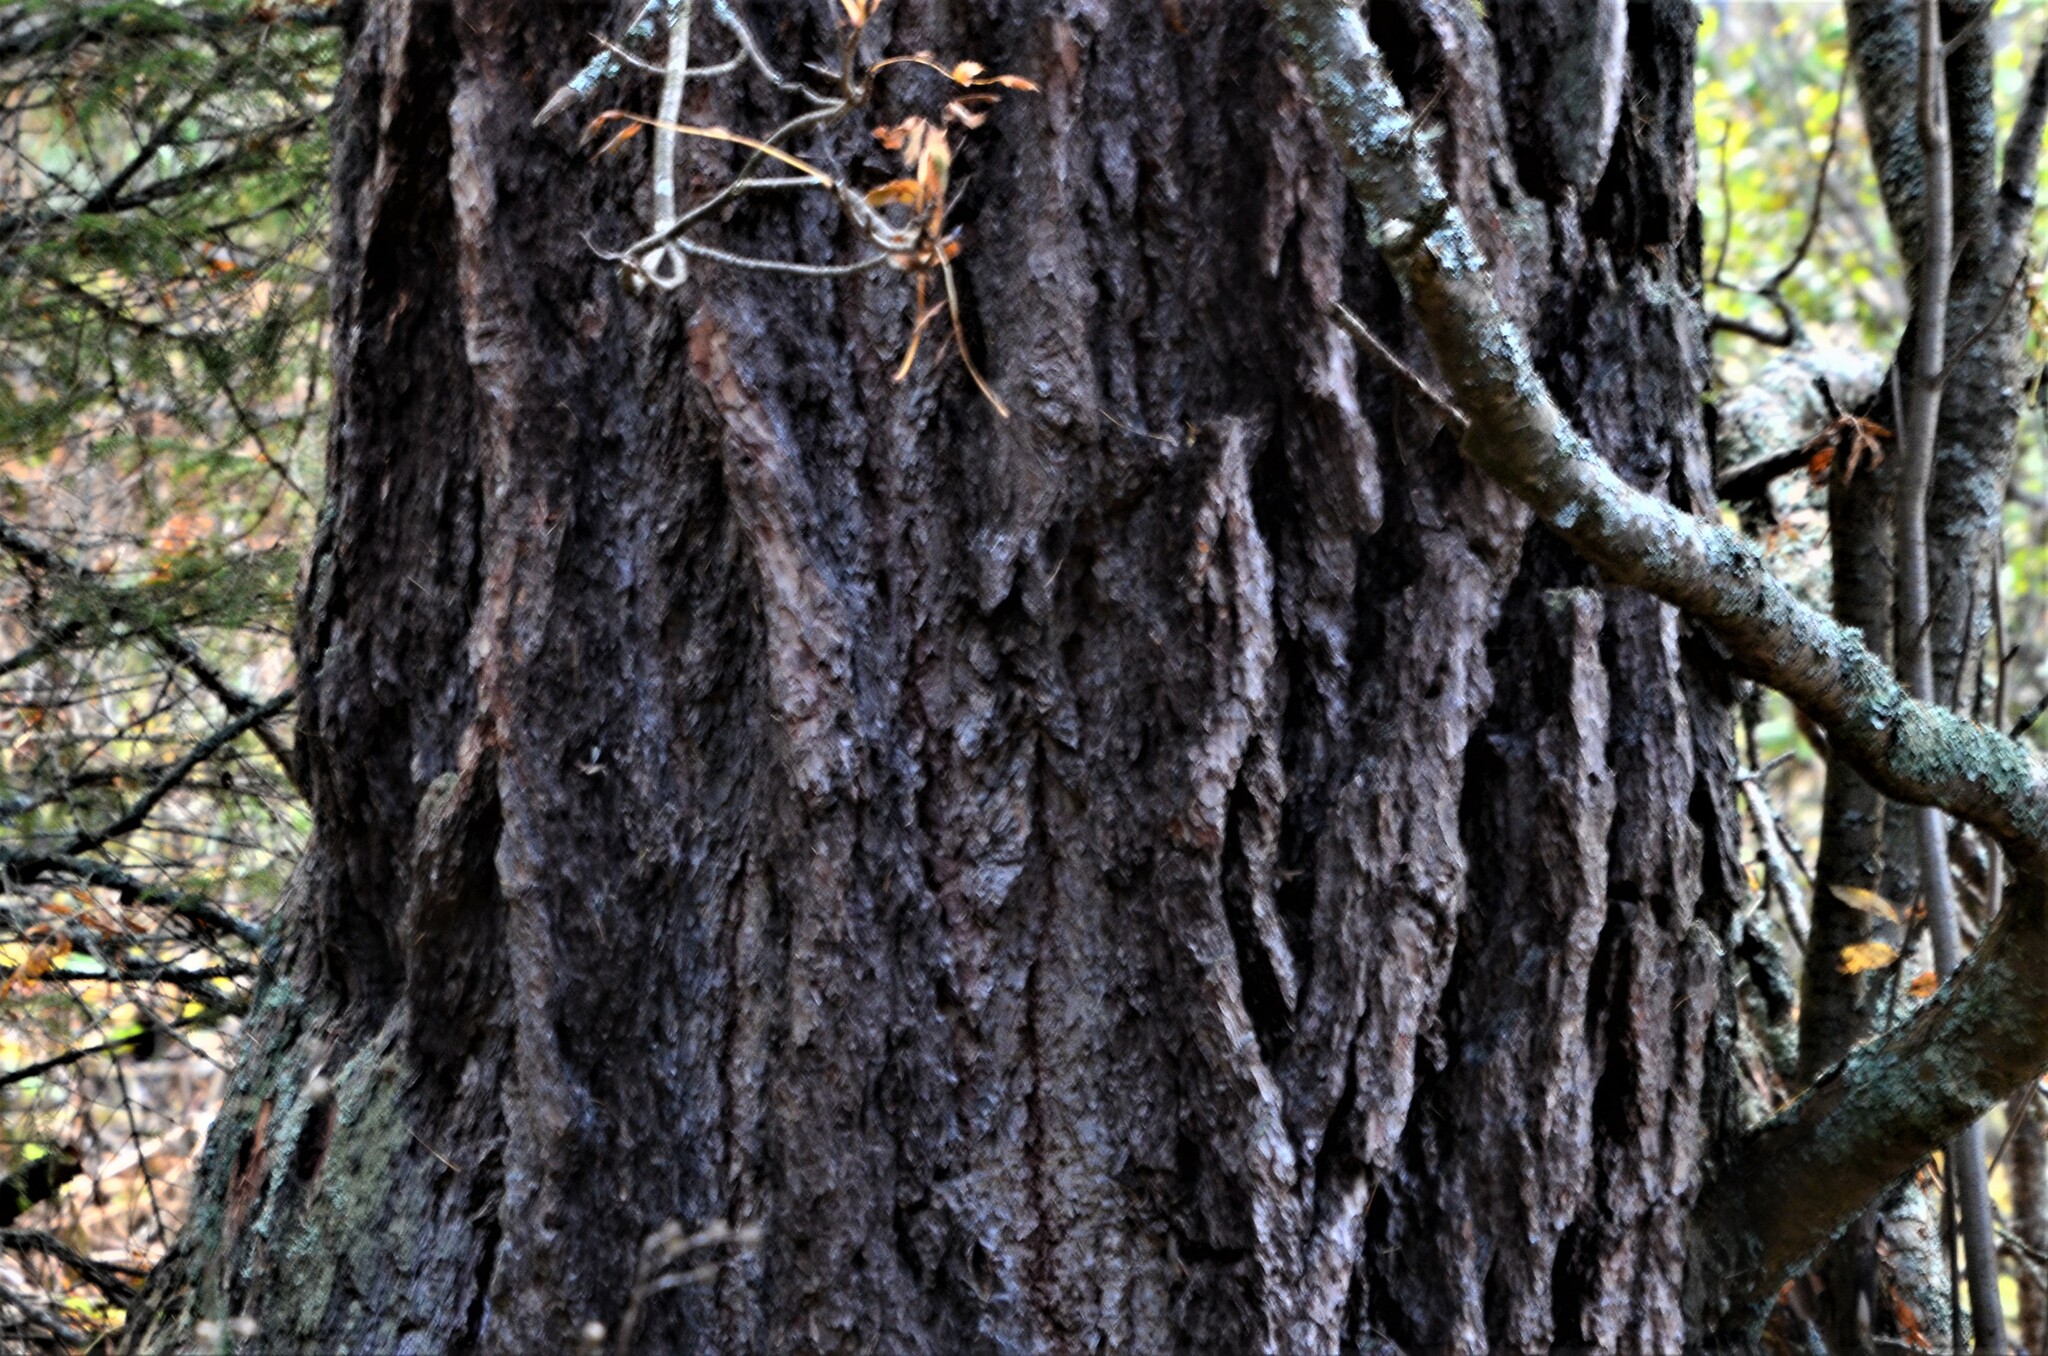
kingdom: Plantae
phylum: Tracheophyta
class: Pinopsida
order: Pinales
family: Pinaceae
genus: Larix
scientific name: Larix decidua
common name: European larch
